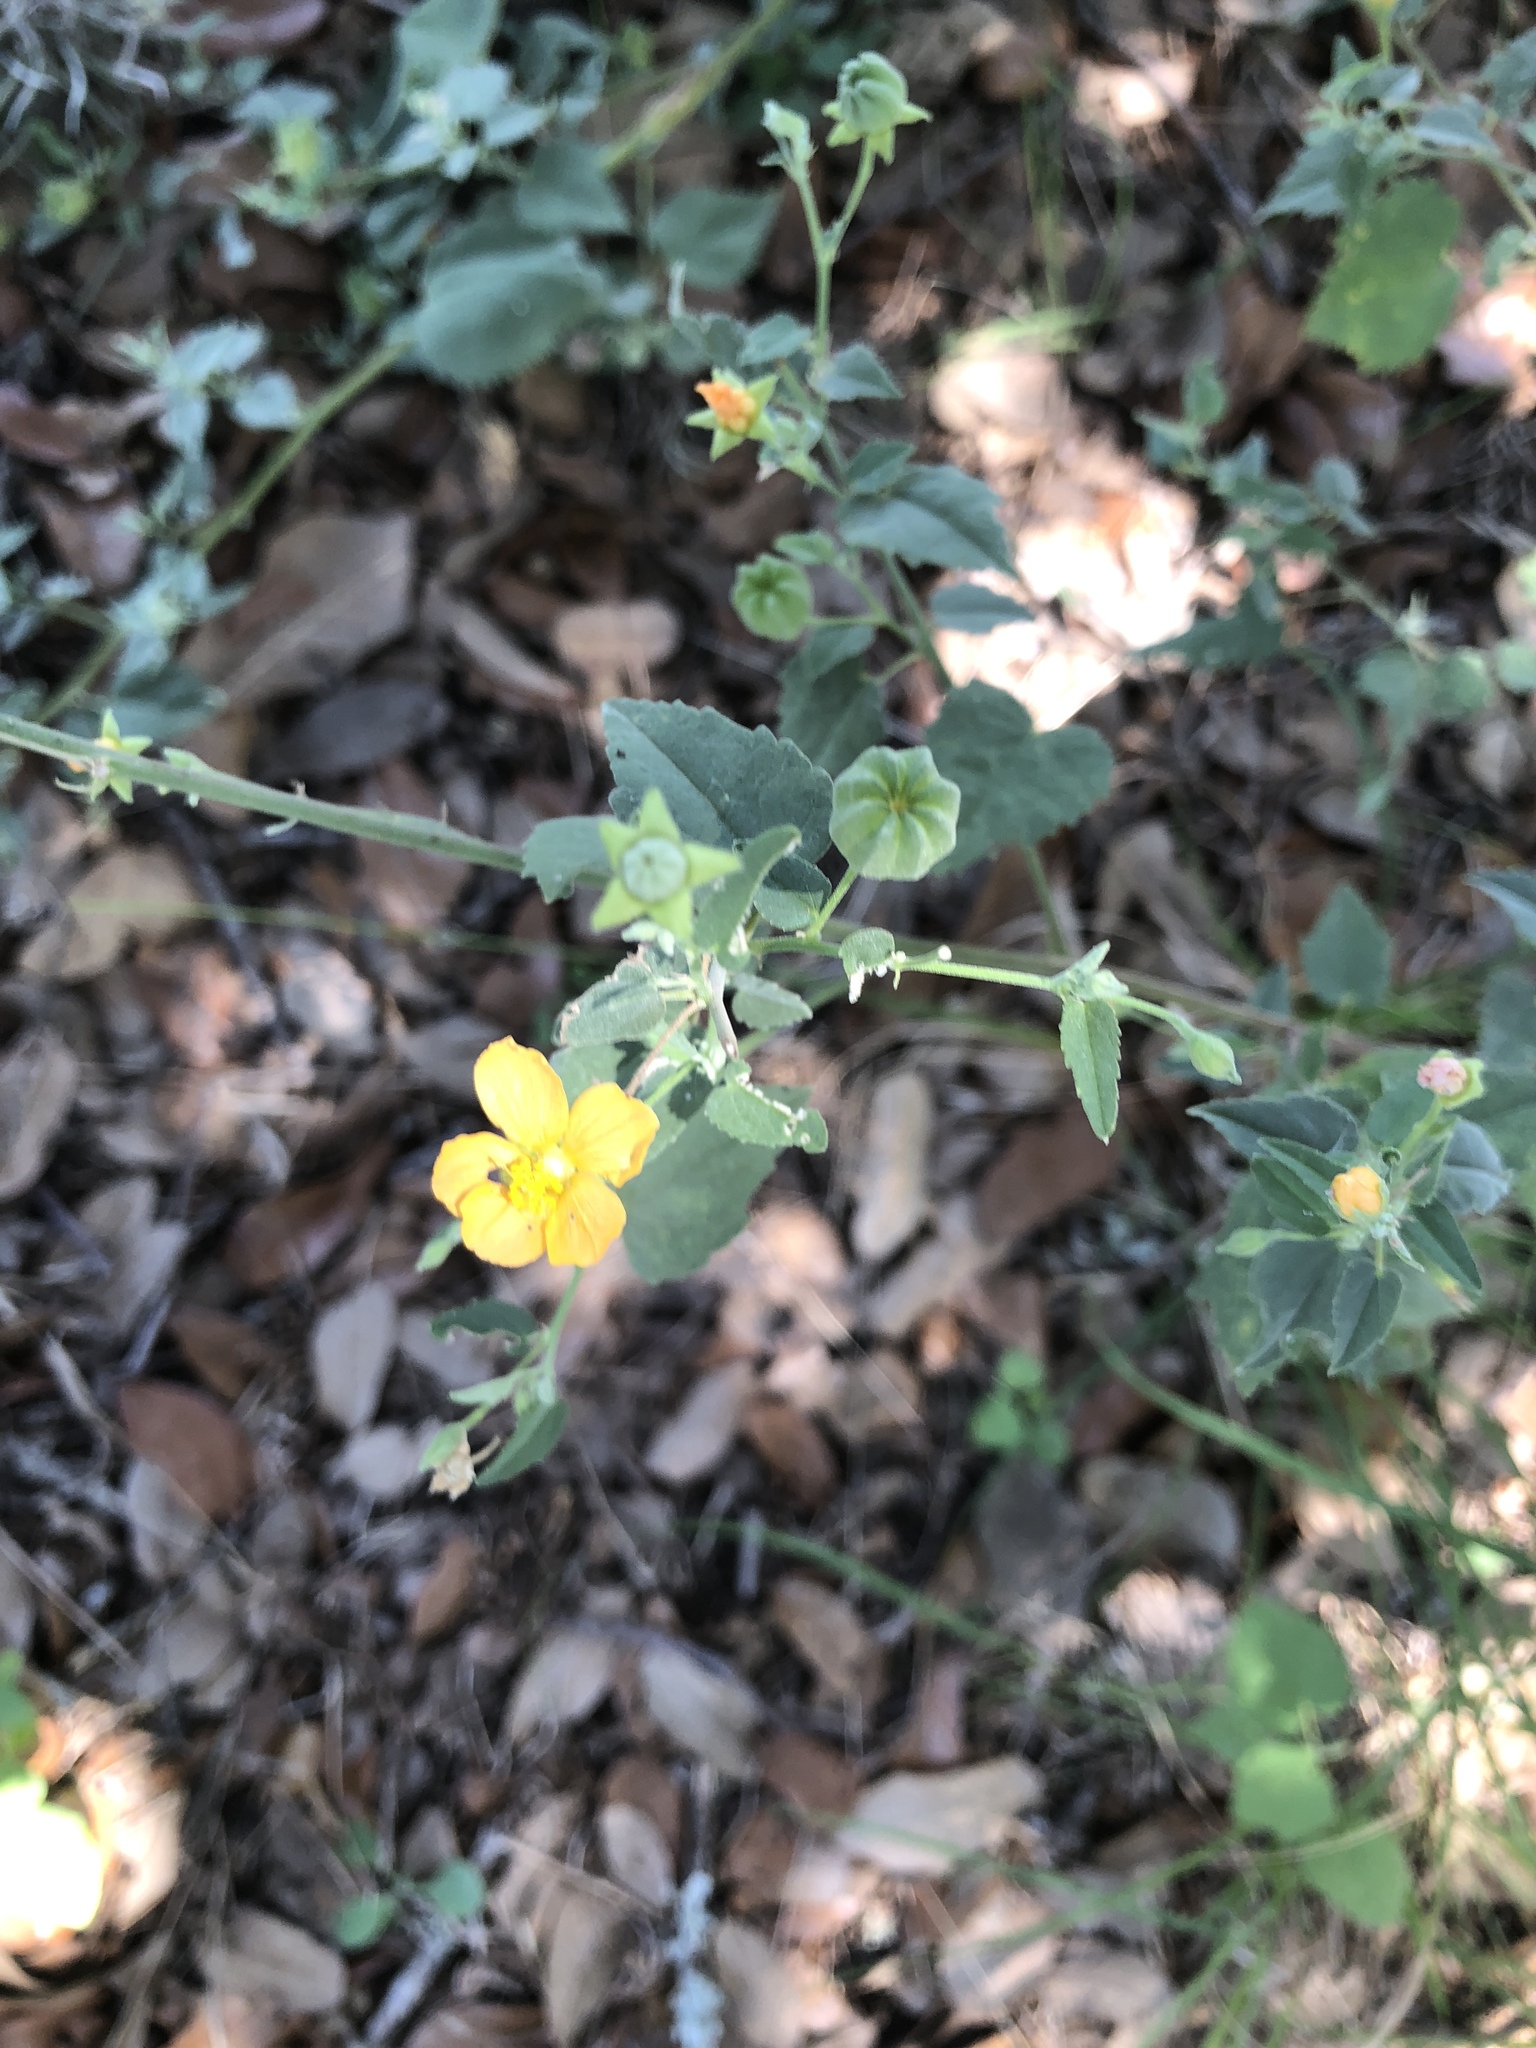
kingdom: Plantae
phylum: Tracheophyta
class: Magnoliopsida
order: Malvales
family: Malvaceae
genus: Abutilon
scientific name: Abutilon fruticosum
